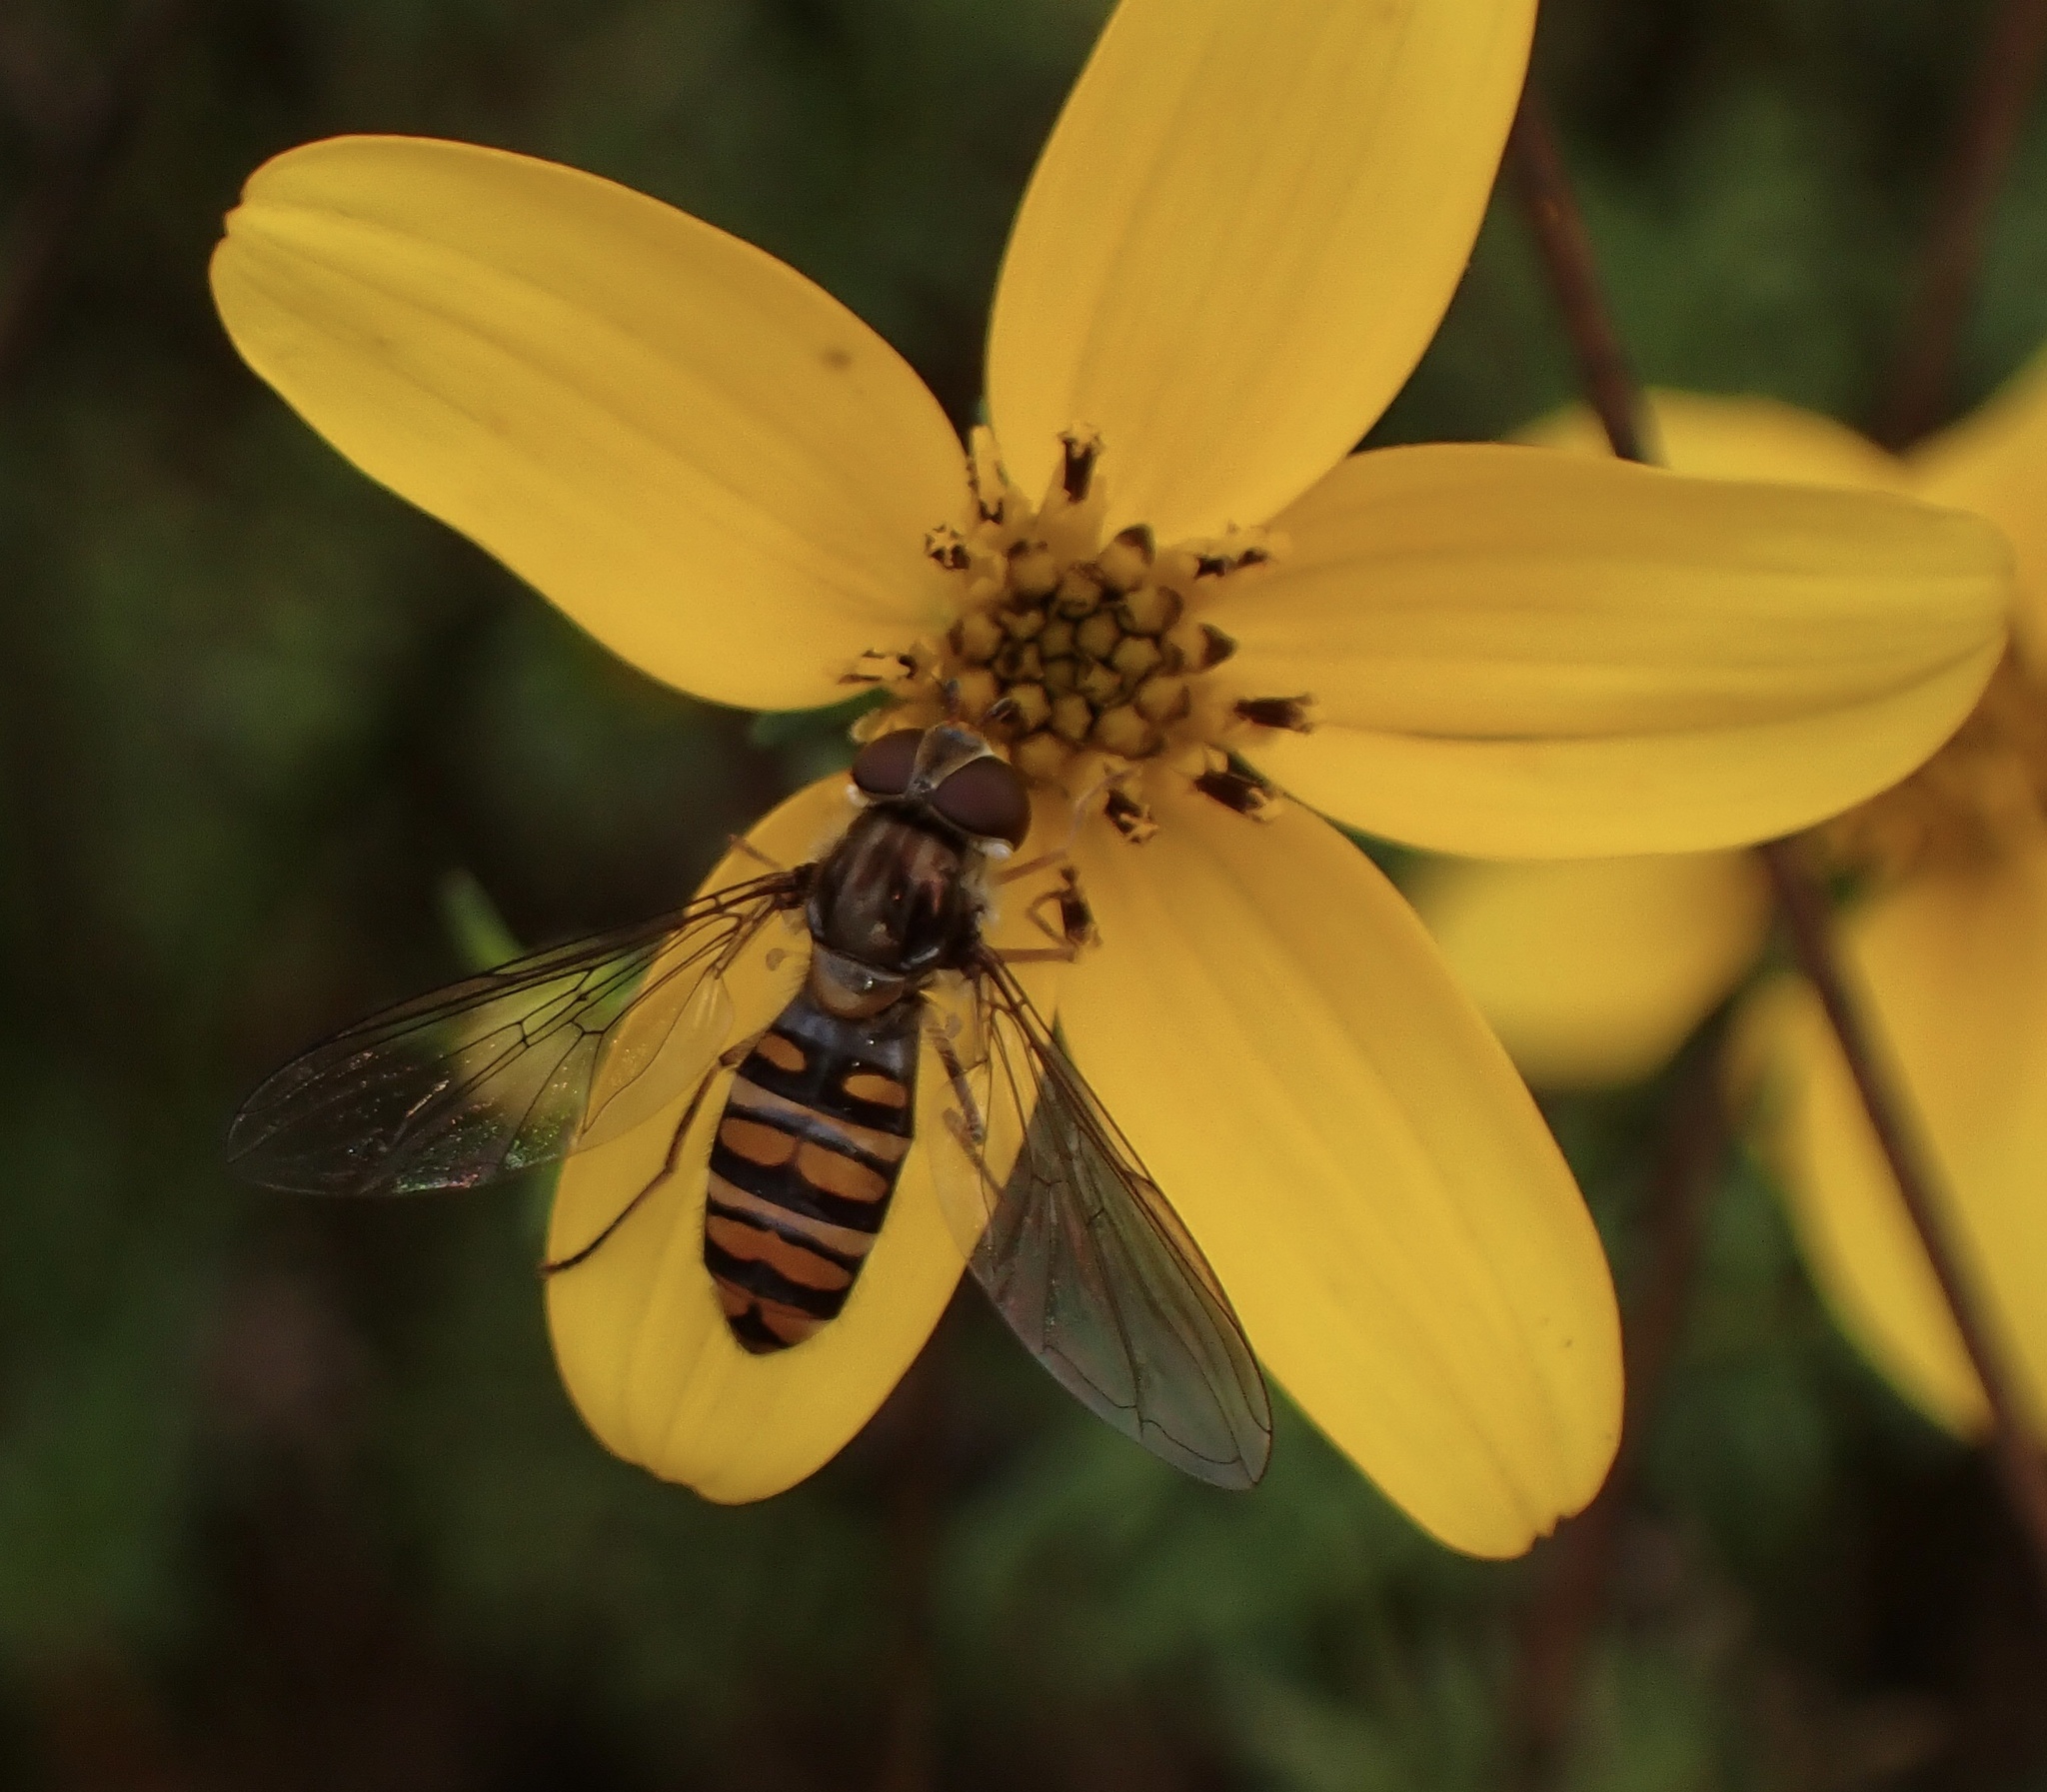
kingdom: Animalia
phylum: Arthropoda
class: Insecta
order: Diptera
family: Syrphidae
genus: Episyrphus
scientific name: Episyrphus balteatus
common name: Marmalade hoverfly
